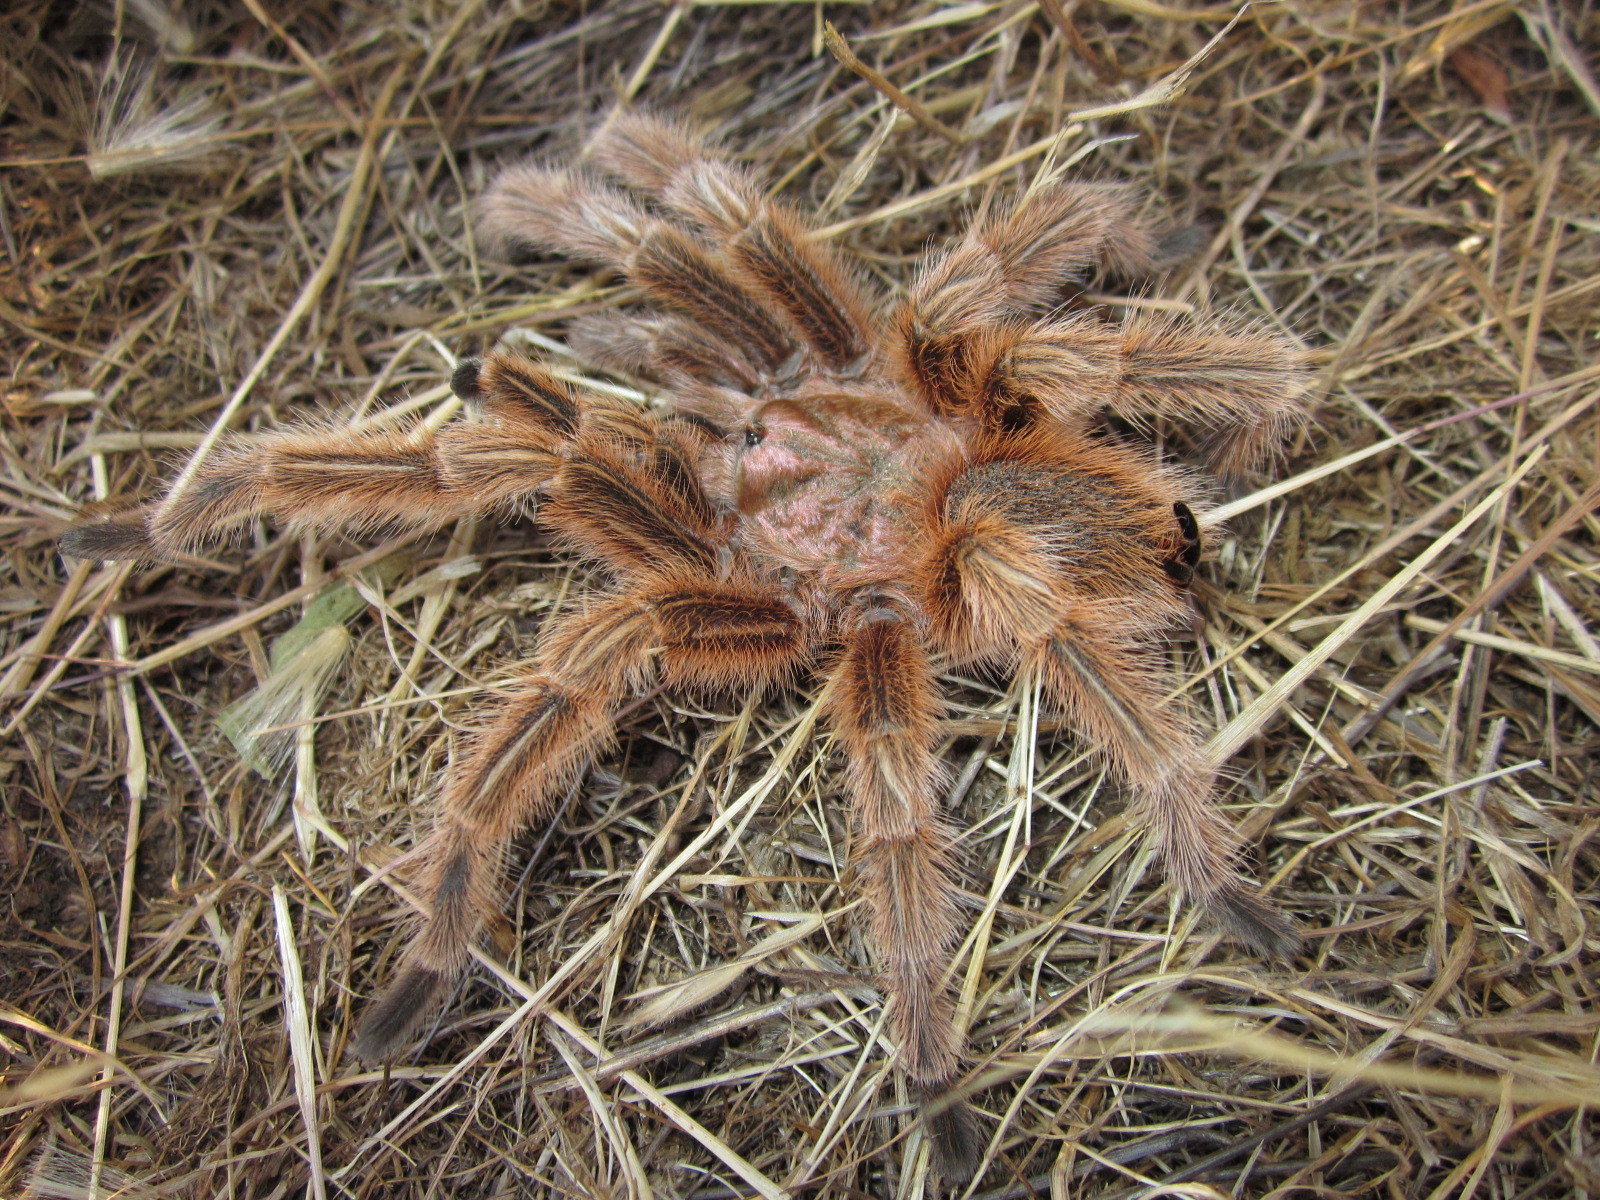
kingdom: Animalia
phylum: Arthropoda
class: Arachnida
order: Araneae
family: Theraphosidae
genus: Grammostola
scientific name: Grammostola rosea
